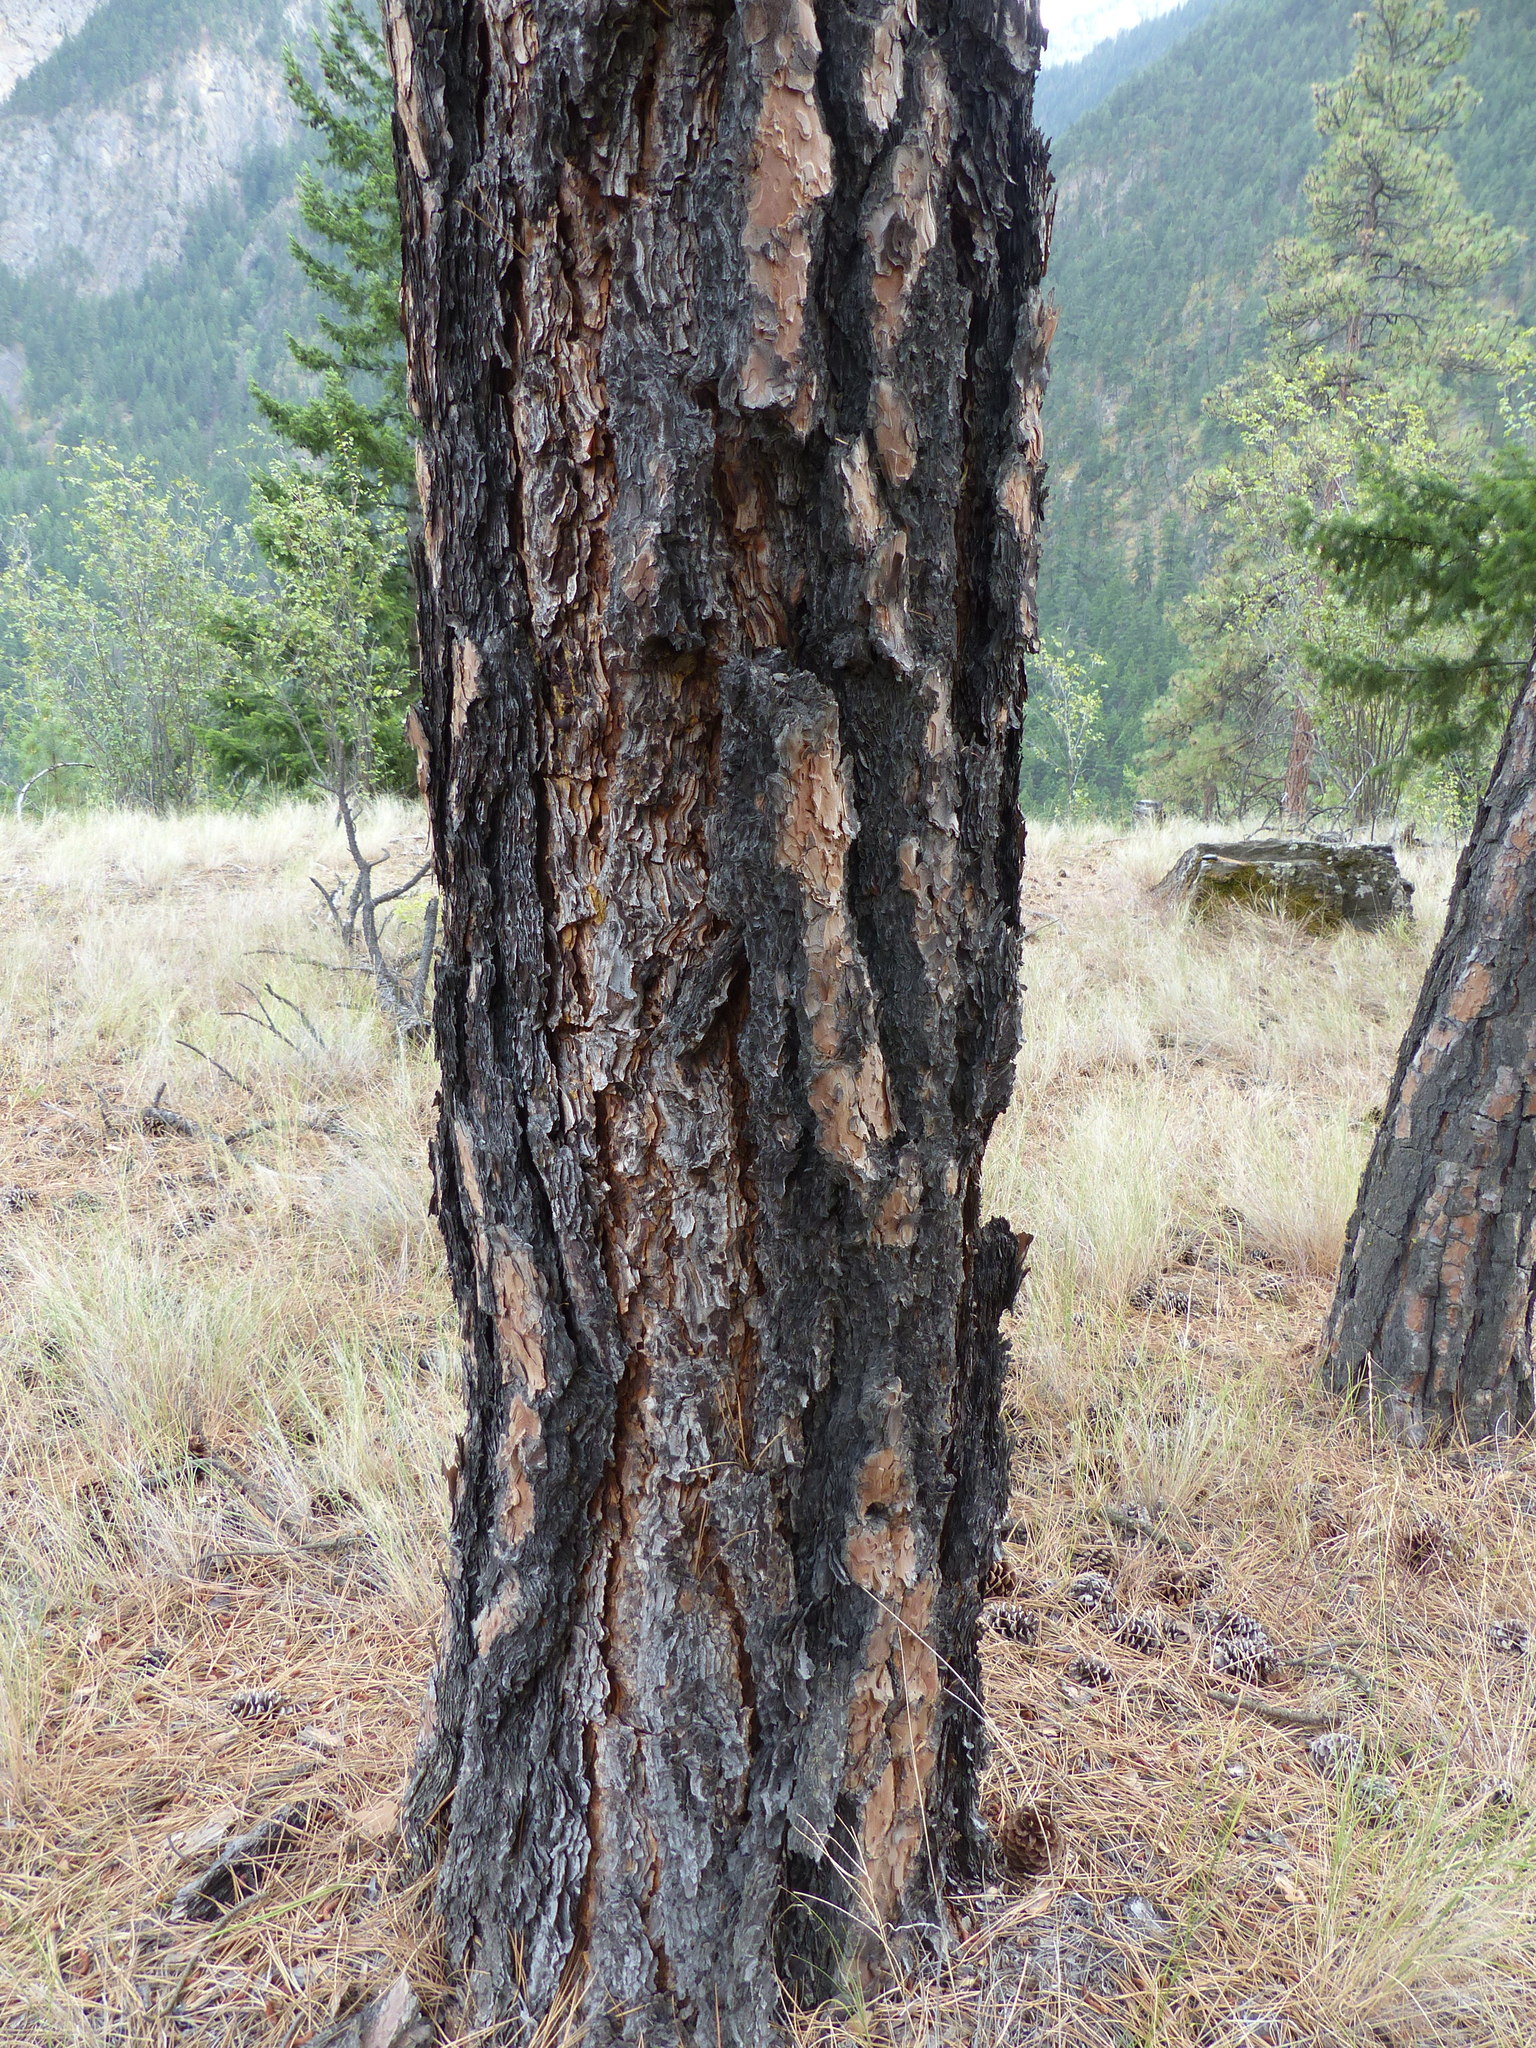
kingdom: Plantae
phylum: Tracheophyta
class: Pinopsida
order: Pinales
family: Pinaceae
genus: Pinus
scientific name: Pinus ponderosa
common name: Western yellow-pine
